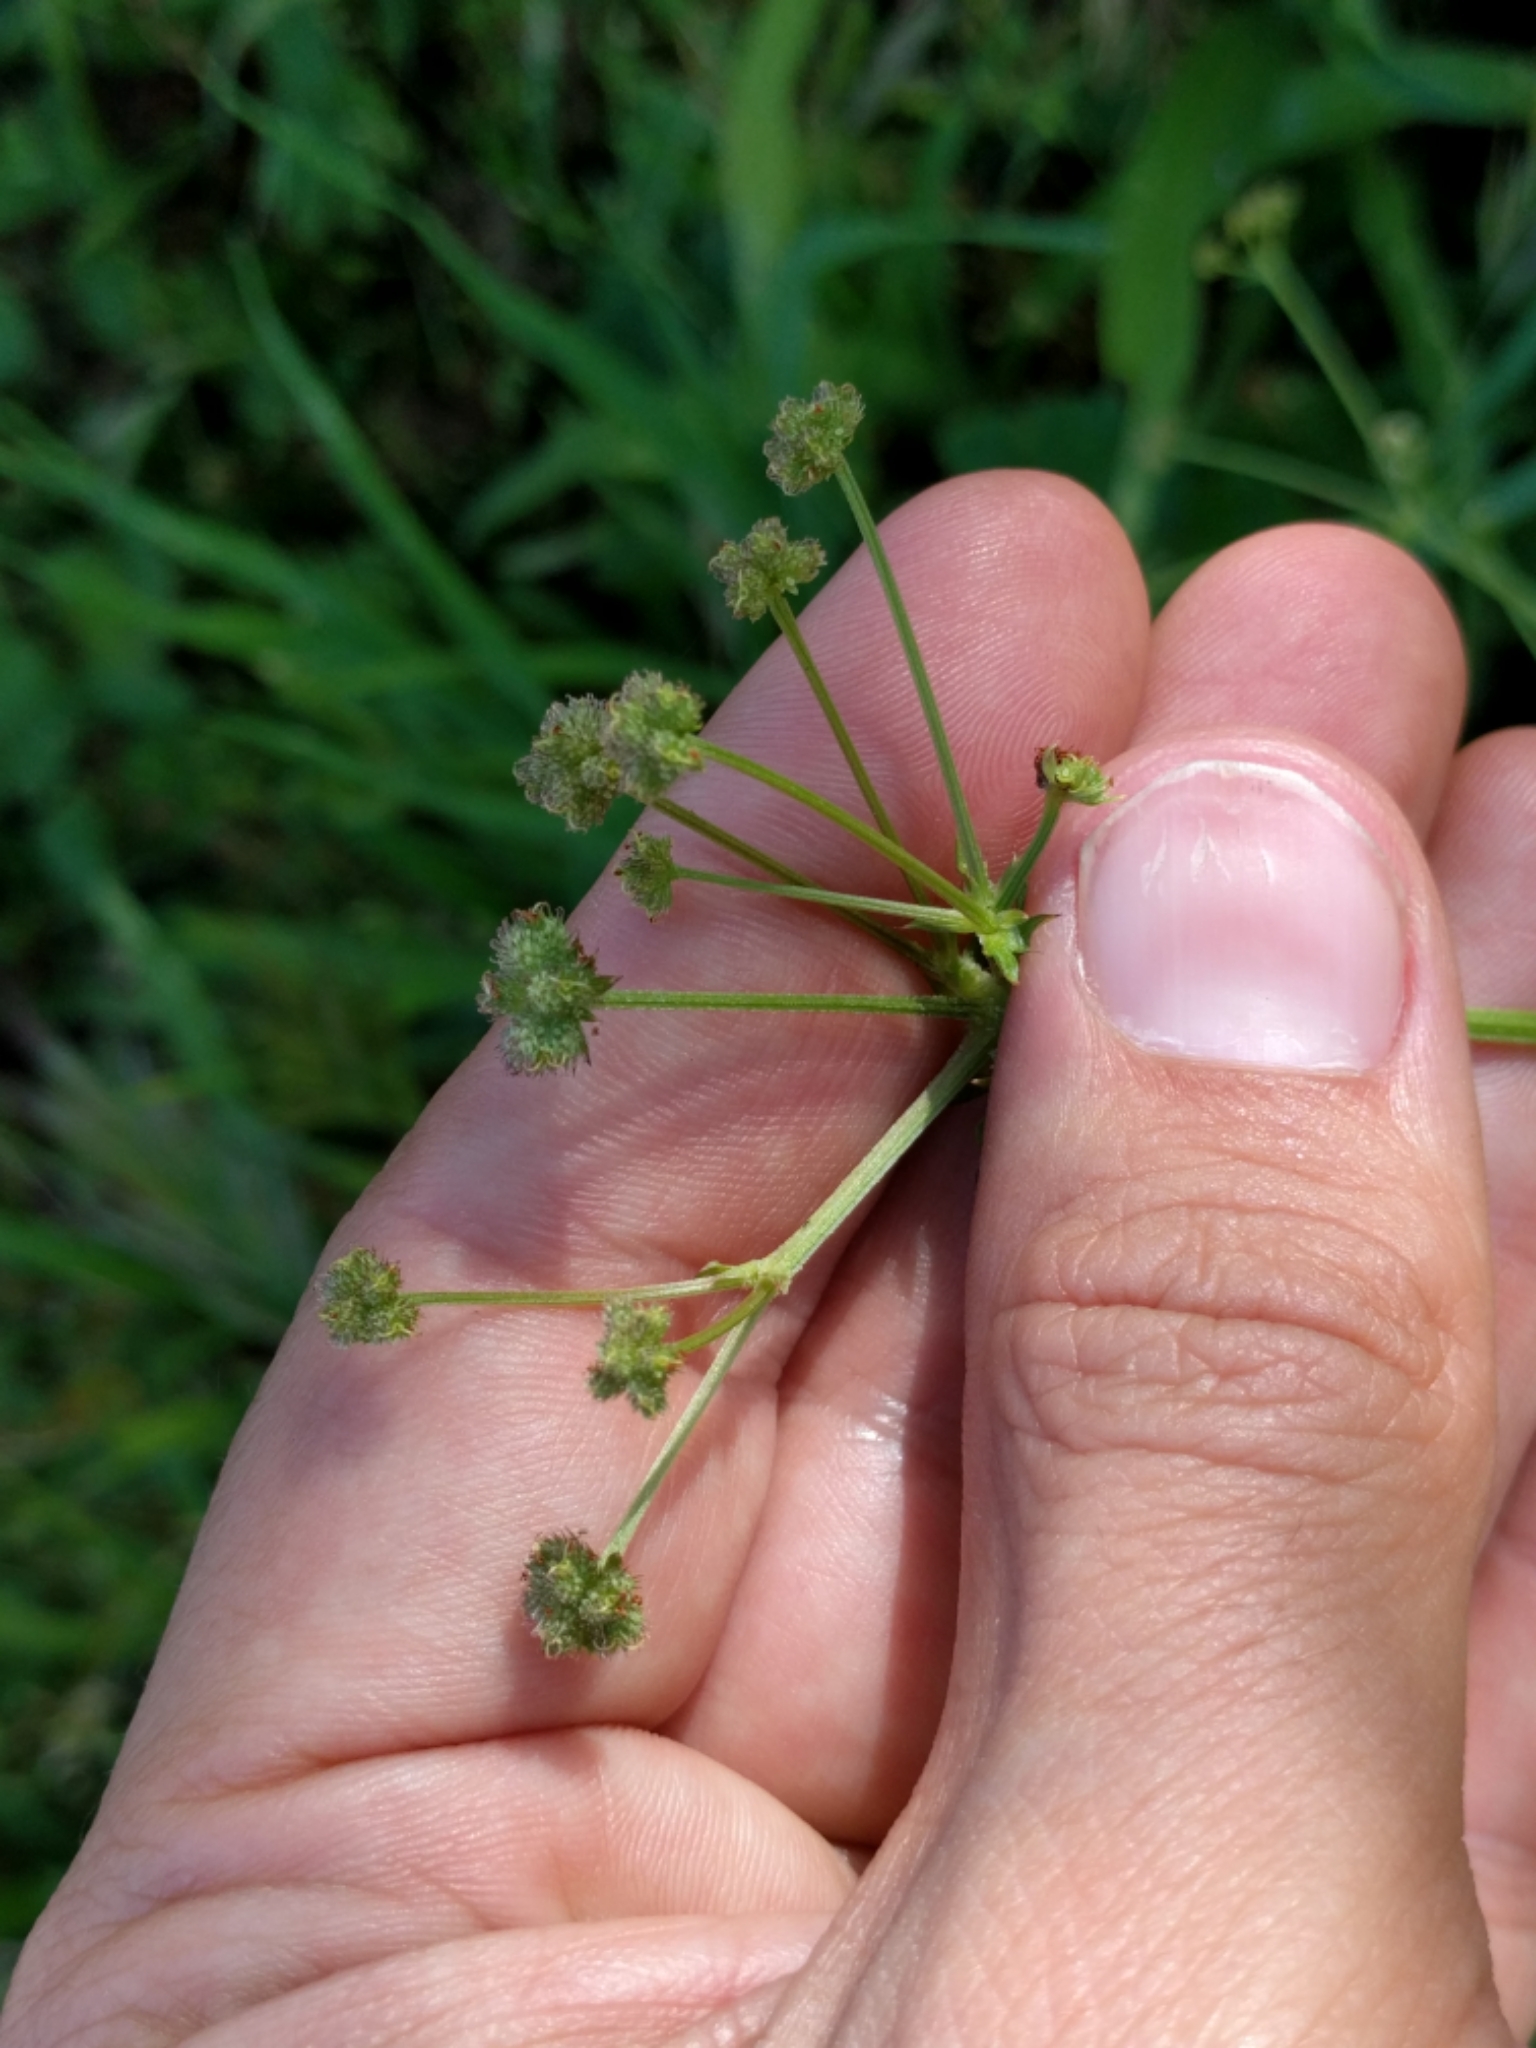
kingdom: Plantae
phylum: Tracheophyta
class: Magnoliopsida
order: Apiales
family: Apiaceae
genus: Sanicula
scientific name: Sanicula crassicaulis
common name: Western snakeroot
